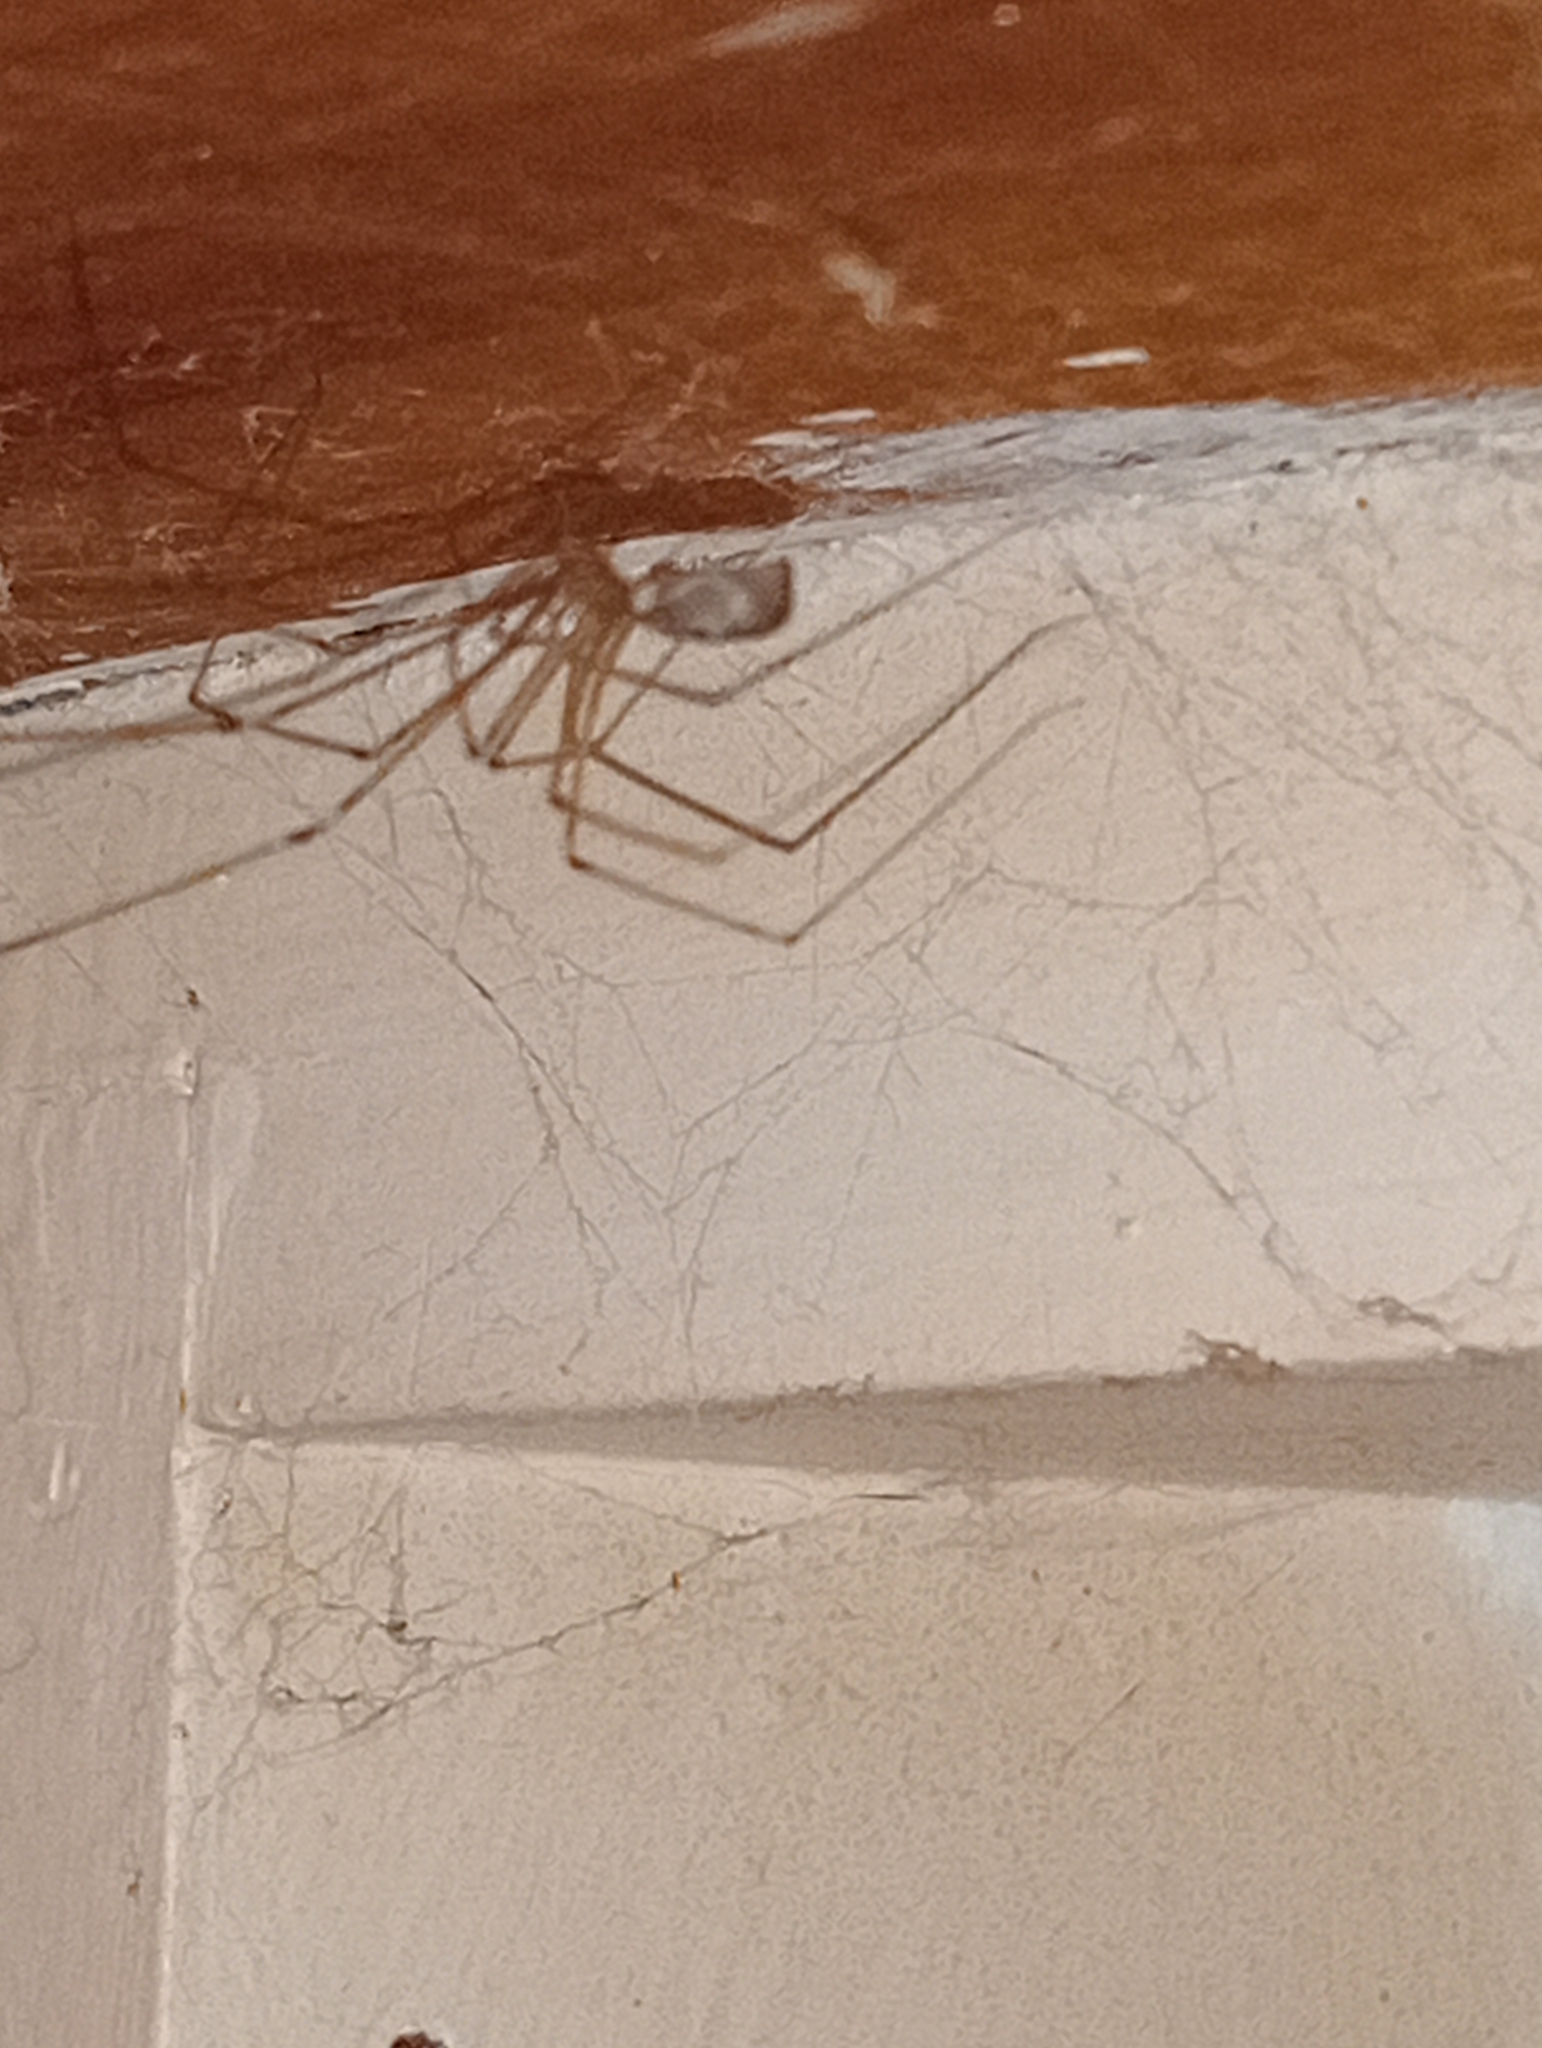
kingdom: Animalia
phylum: Arthropoda
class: Arachnida
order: Araneae
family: Pholcidae
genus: Pholcus
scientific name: Pholcus phalangioides
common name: Longbodied cellar spider
